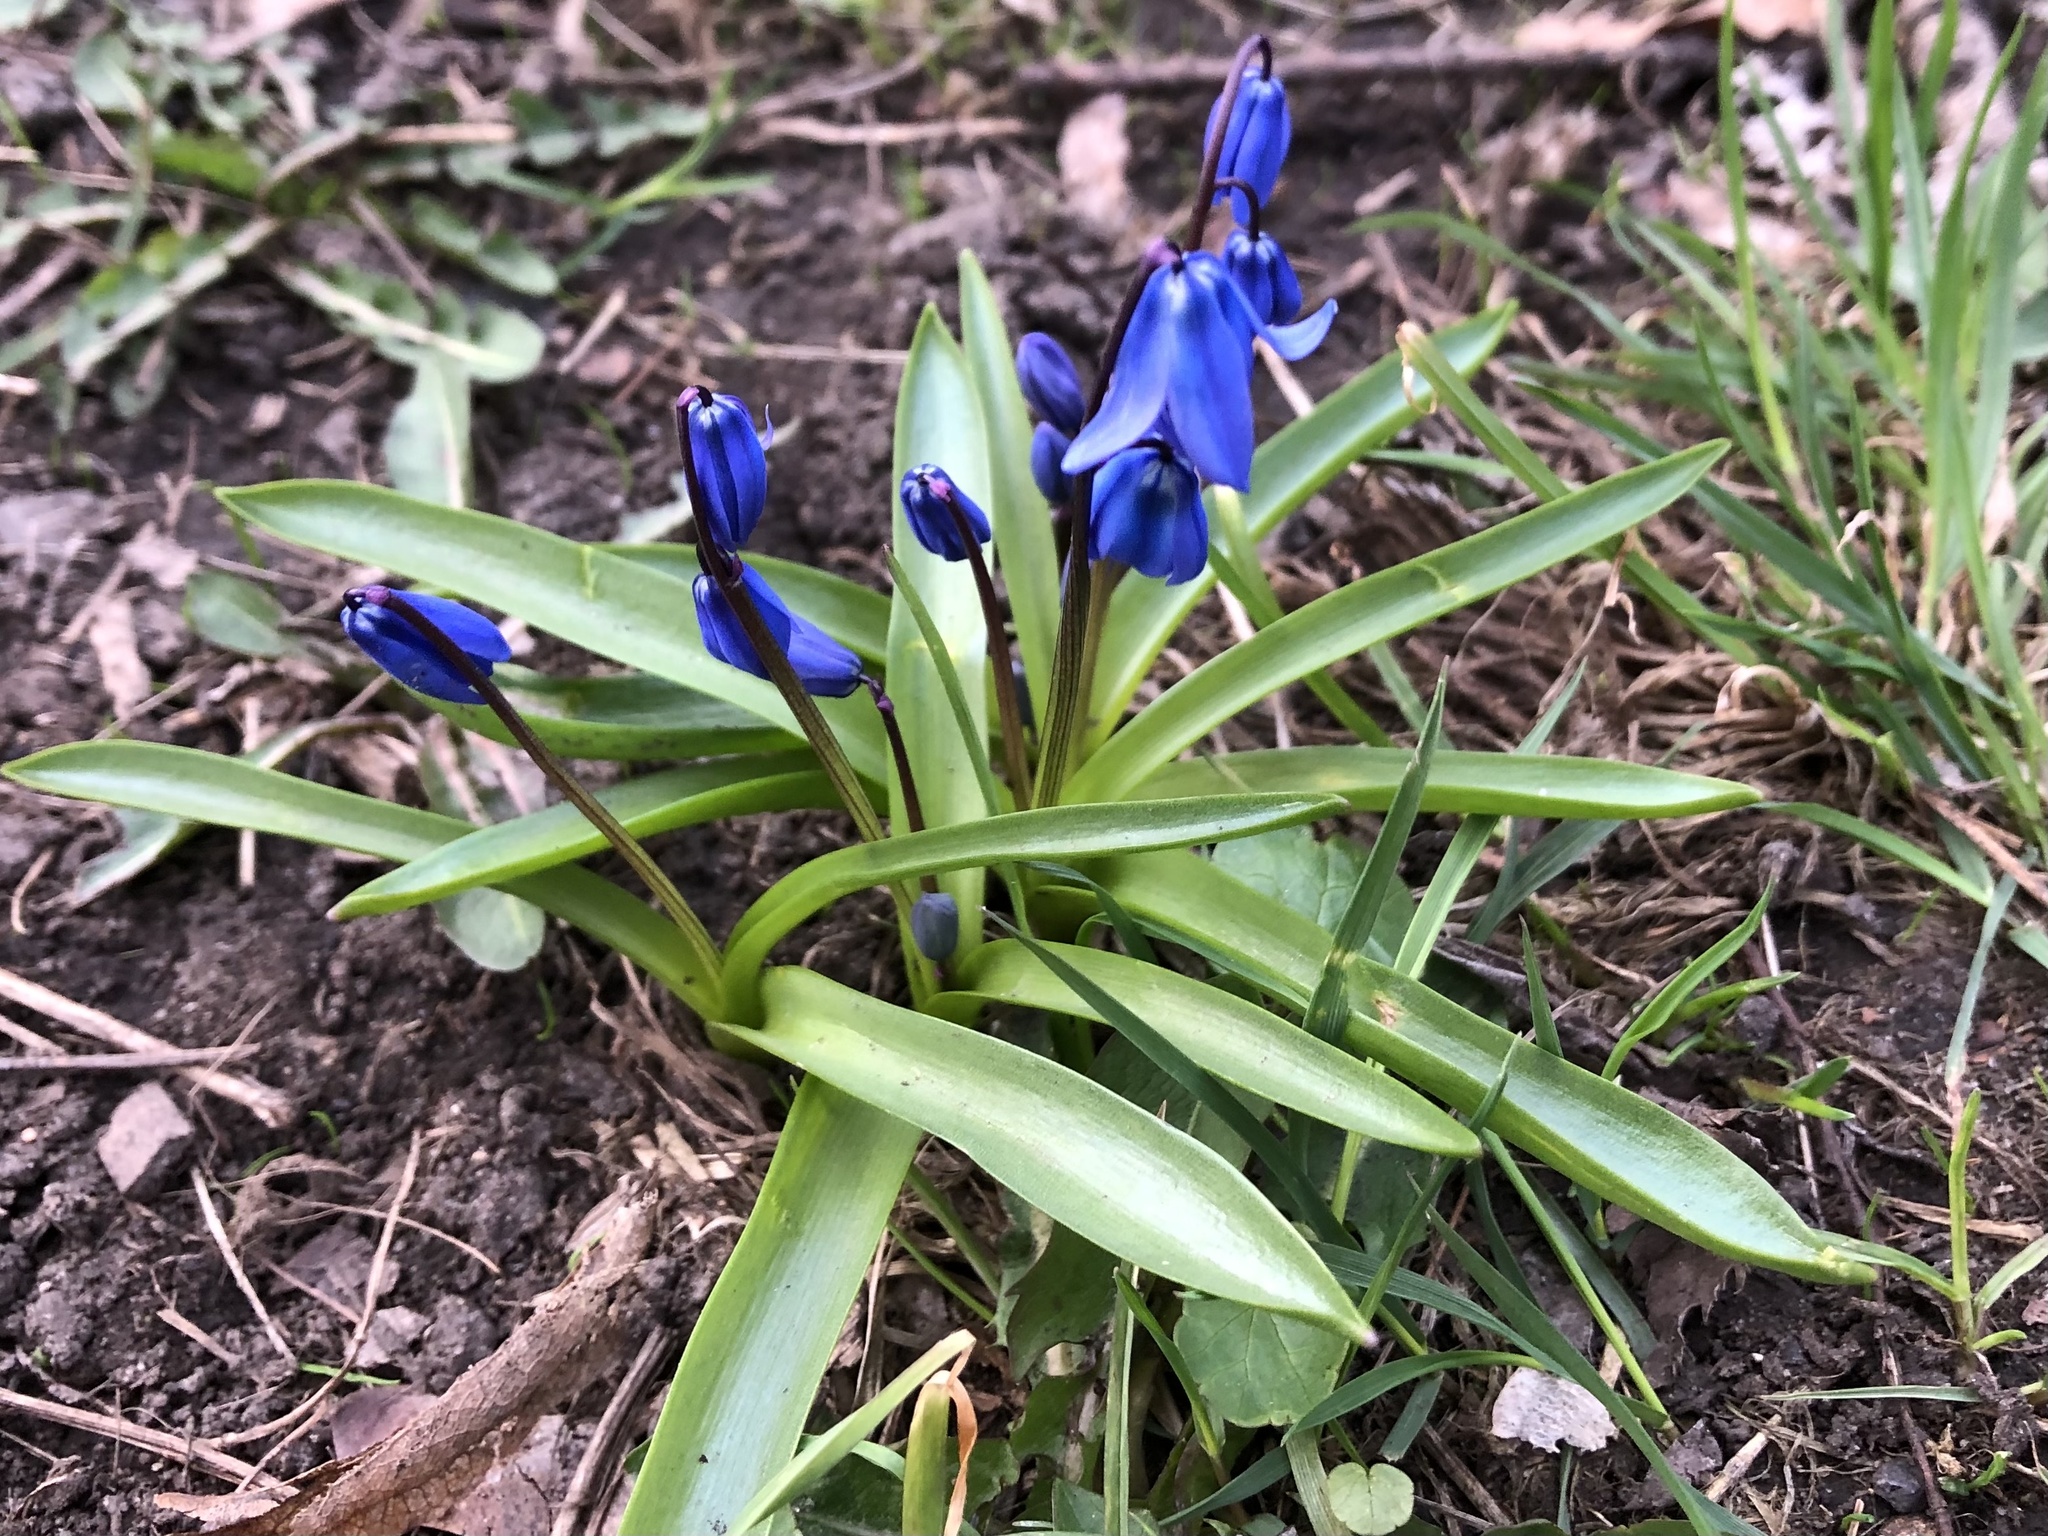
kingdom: Plantae
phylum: Tracheophyta
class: Liliopsida
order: Asparagales
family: Asparagaceae
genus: Scilla
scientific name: Scilla siberica
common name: Siberian squill
